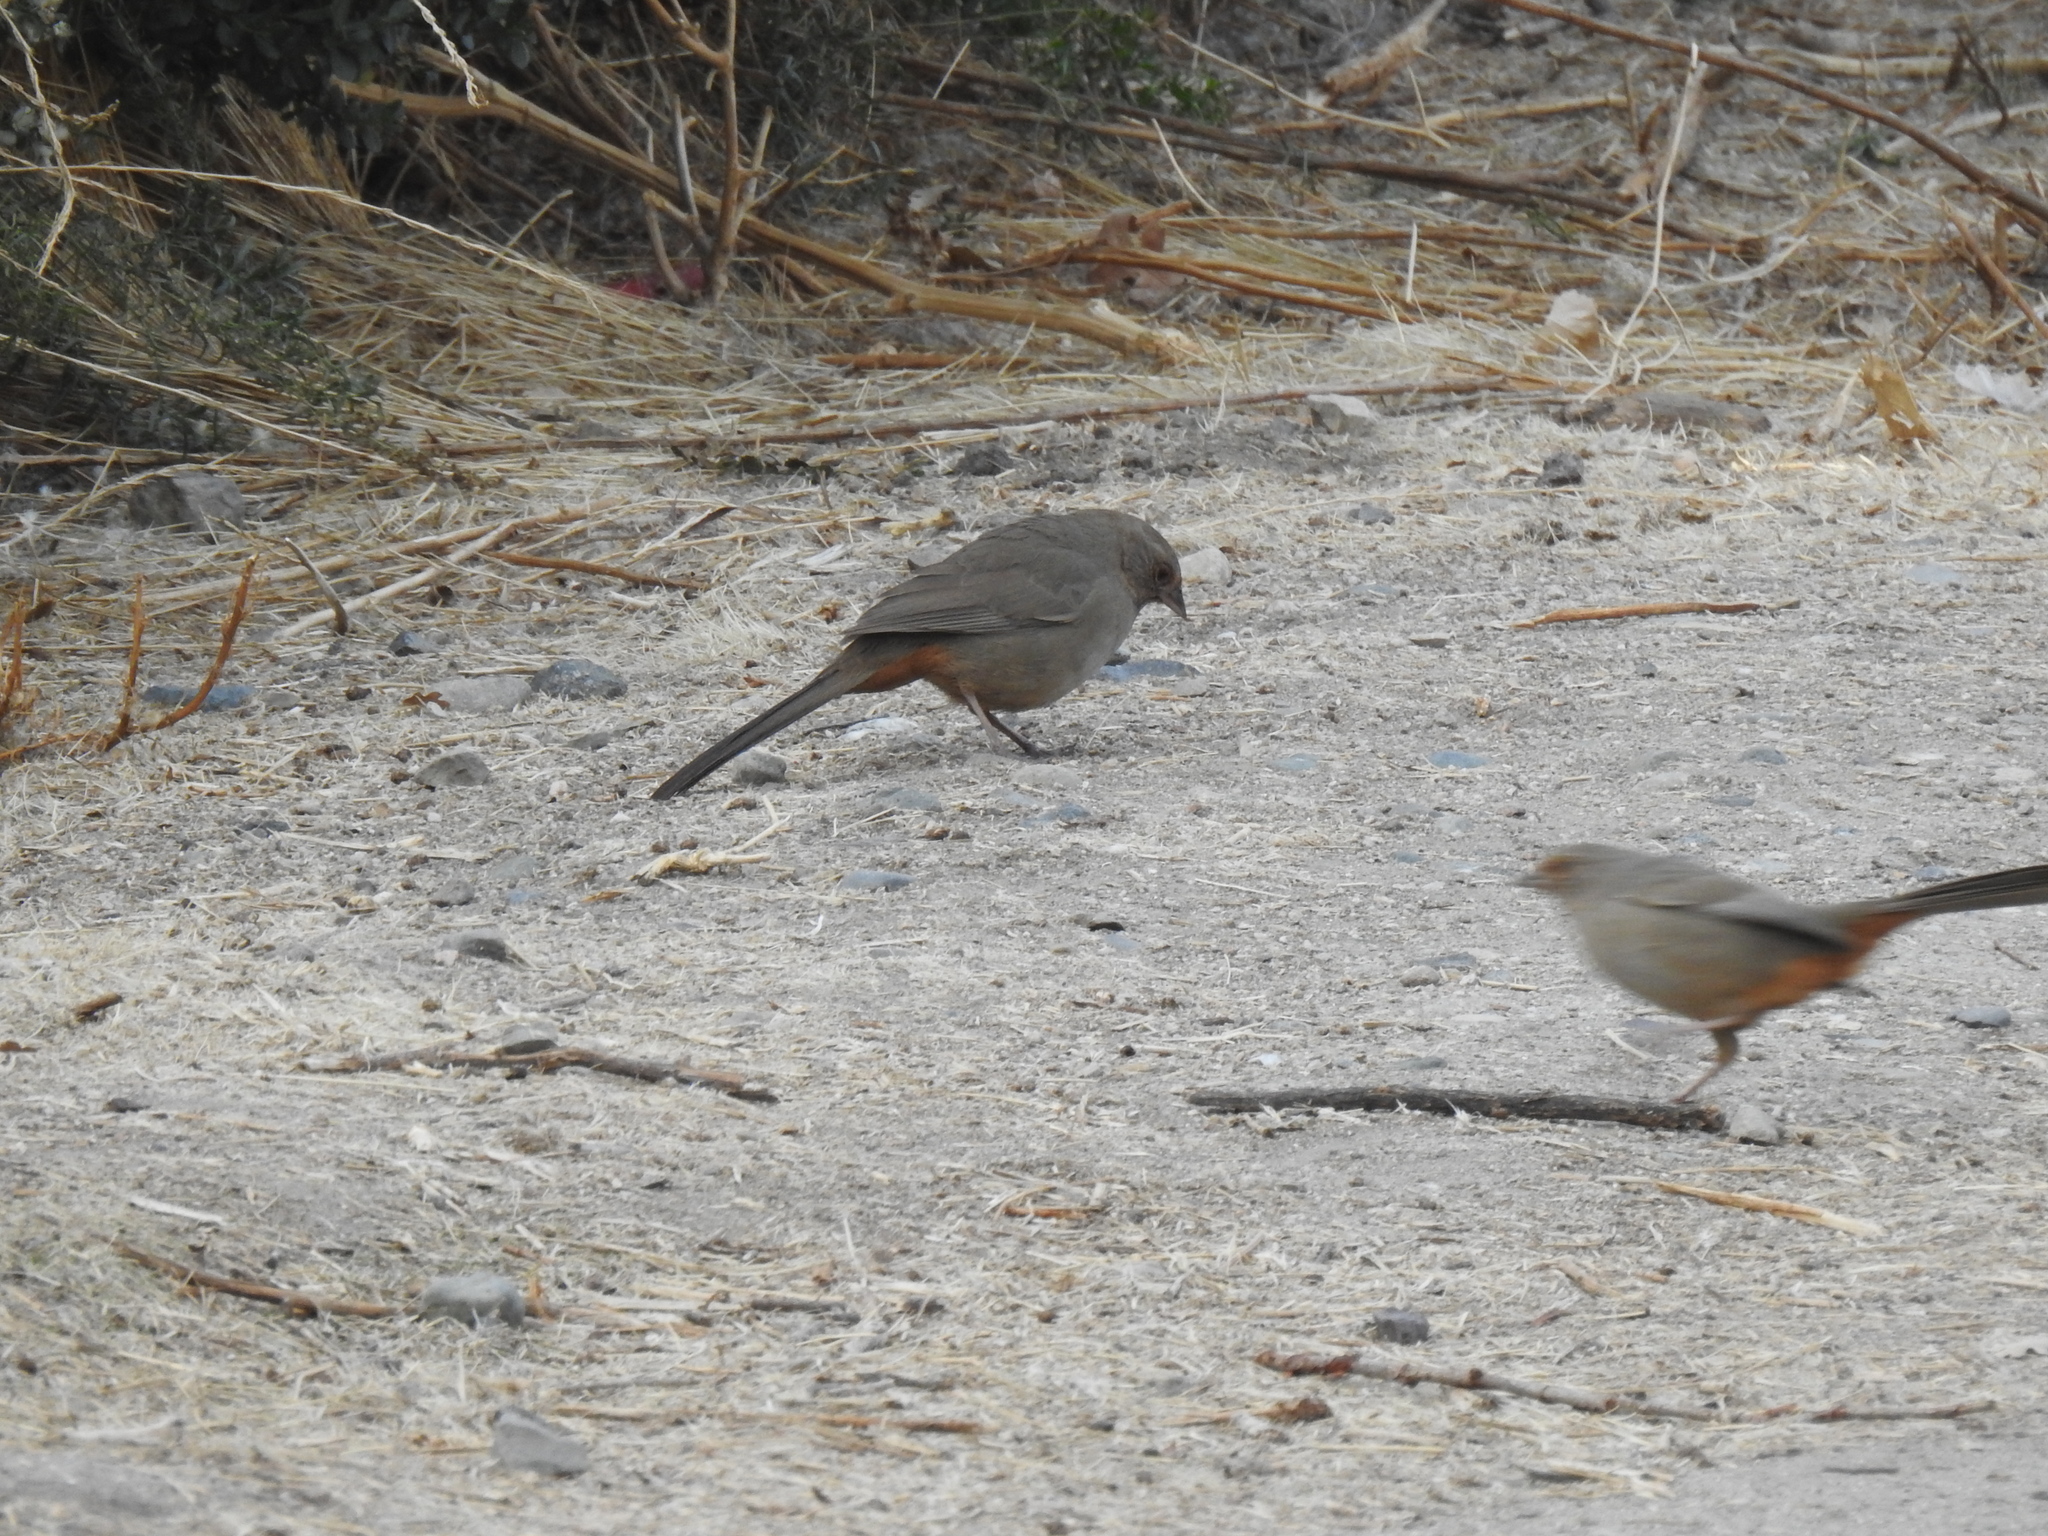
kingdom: Animalia
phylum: Chordata
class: Aves
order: Passeriformes
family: Passerellidae
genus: Melozone
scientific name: Melozone crissalis
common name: California towhee
